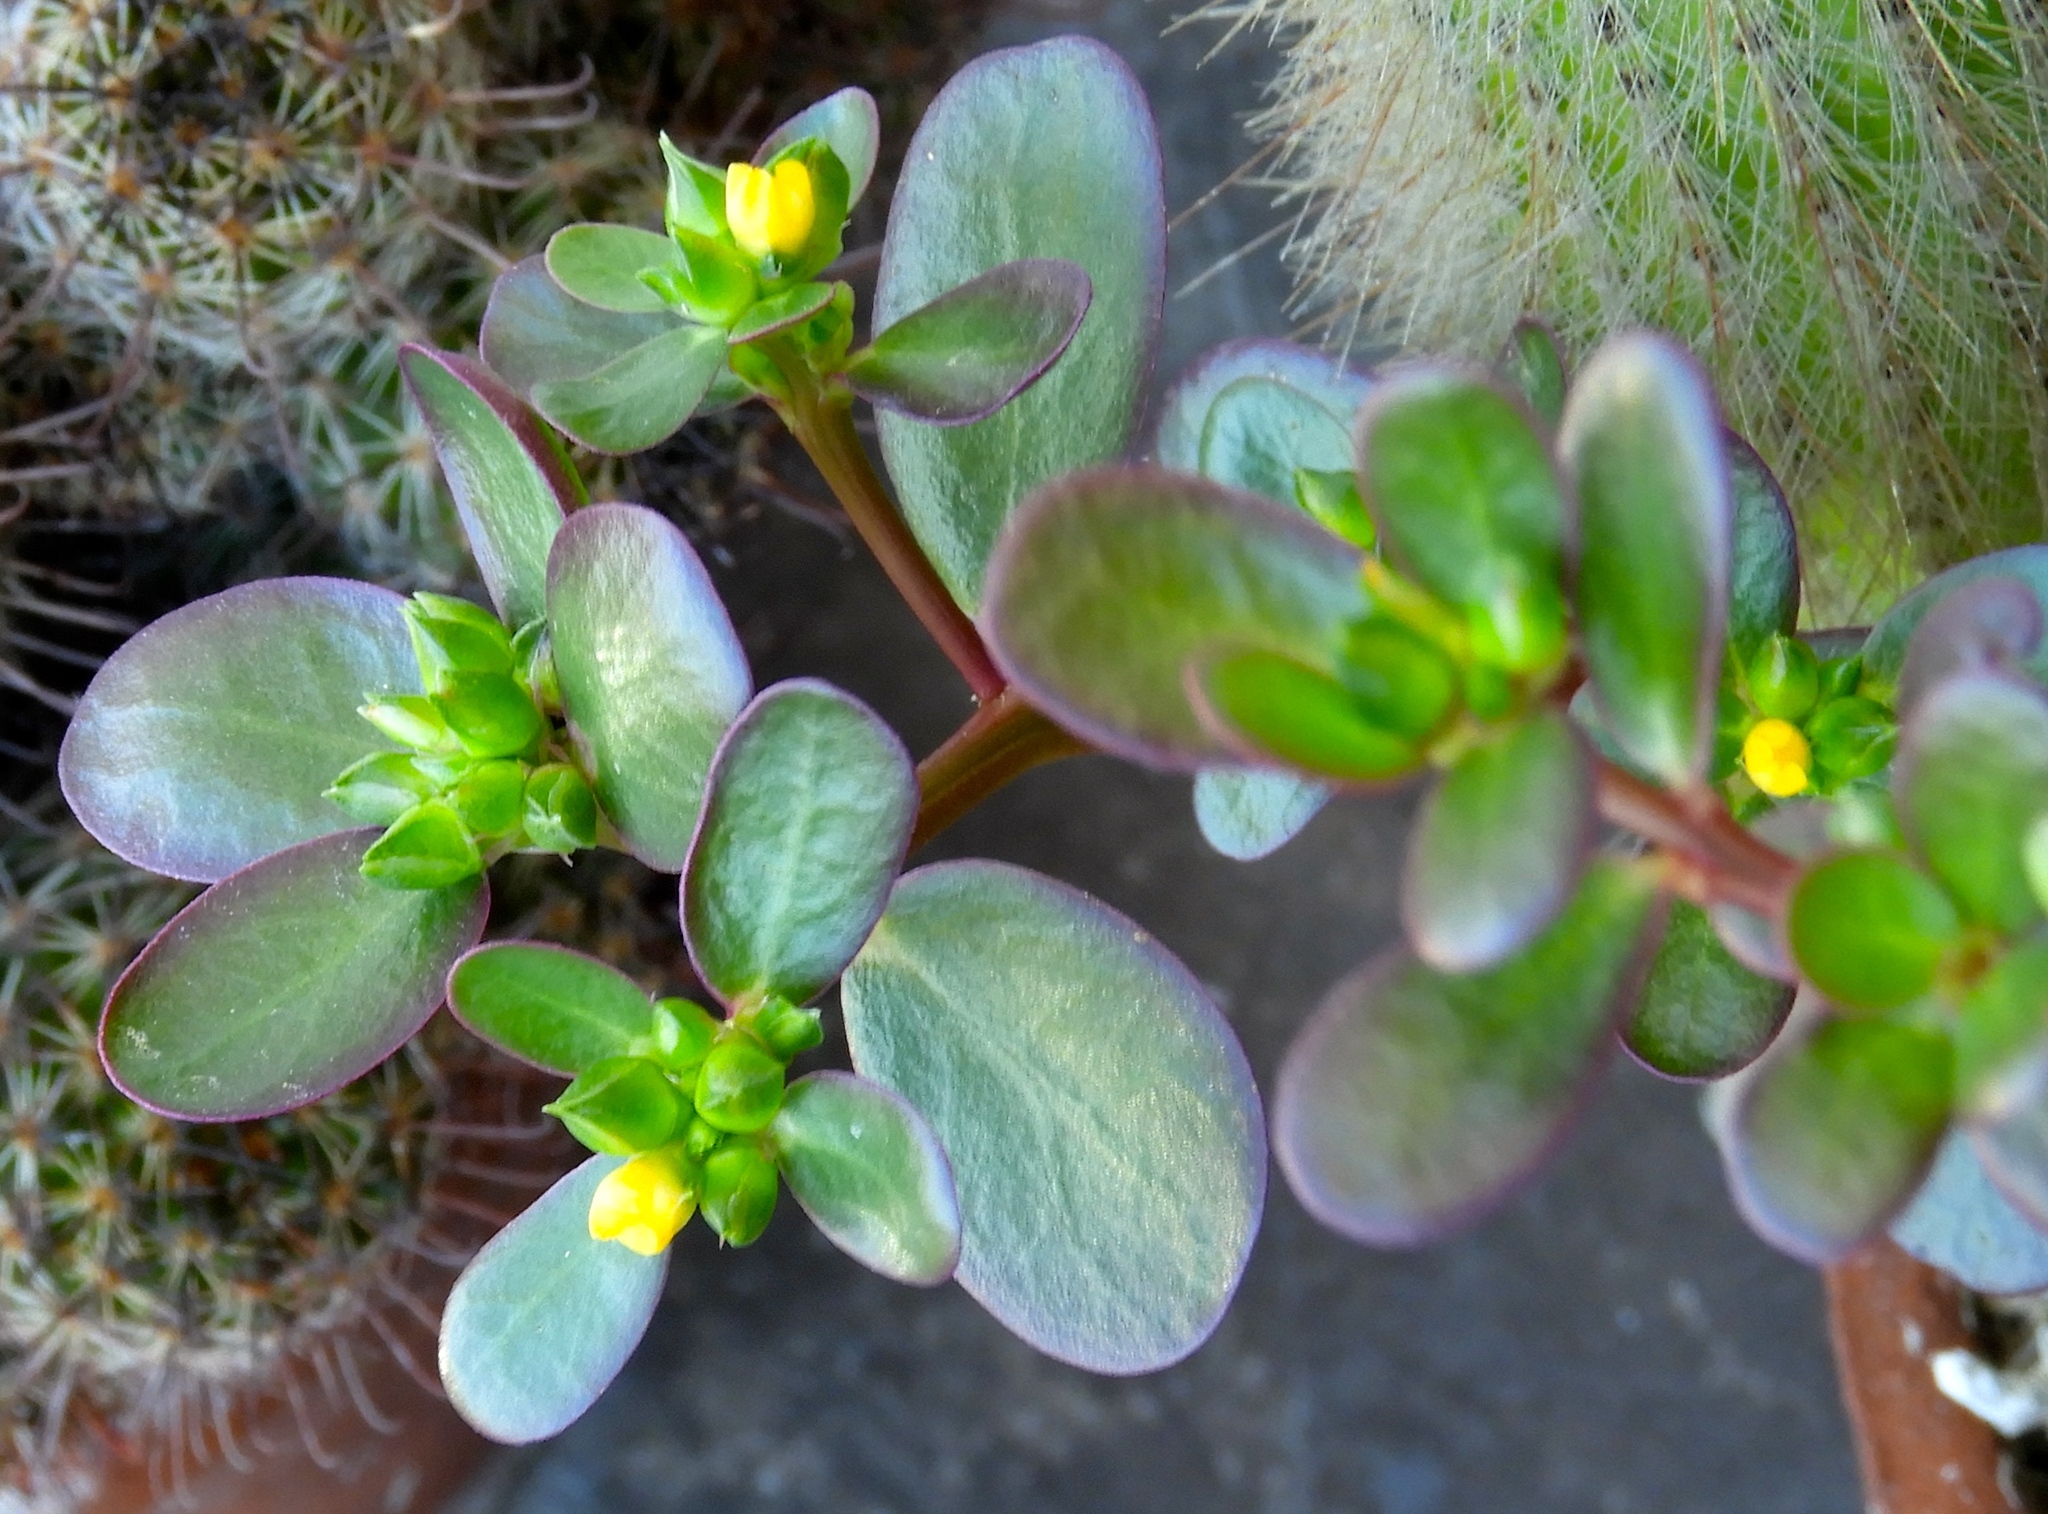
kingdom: Plantae
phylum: Tracheophyta
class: Magnoliopsida
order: Caryophyllales
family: Portulacaceae
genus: Portulaca
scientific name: Portulaca oleracea
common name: Common purslane
